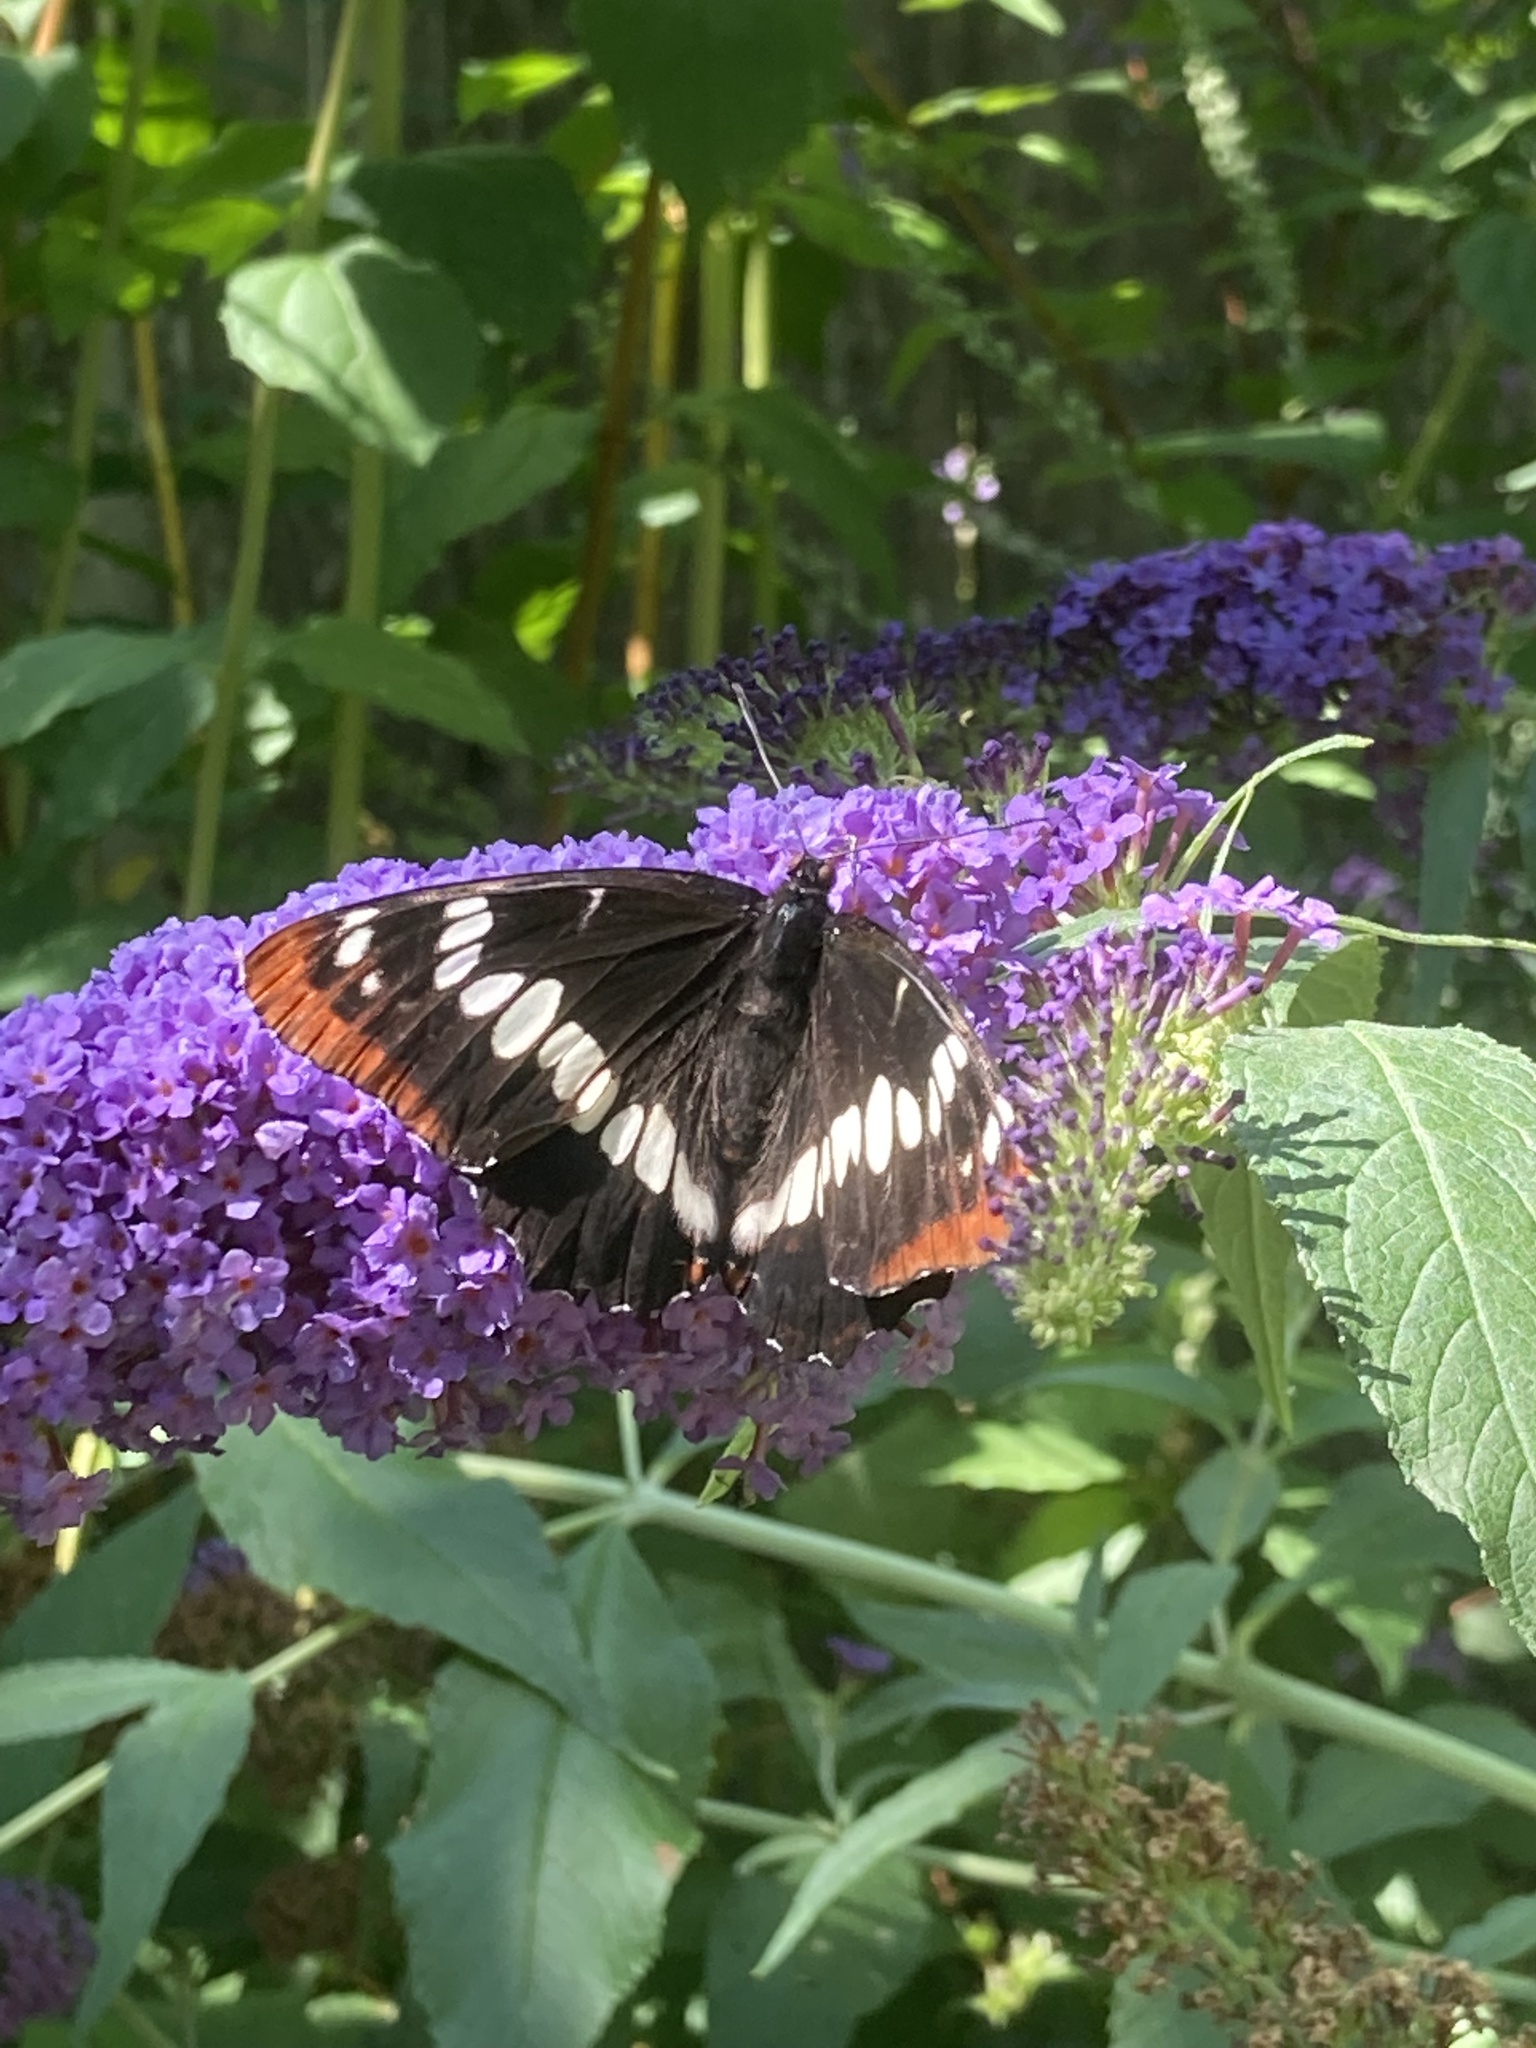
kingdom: Animalia
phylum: Arthropoda
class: Insecta
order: Lepidoptera
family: Nymphalidae
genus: Limenitis
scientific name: Limenitis lorquini
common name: Lorquin's admiral
